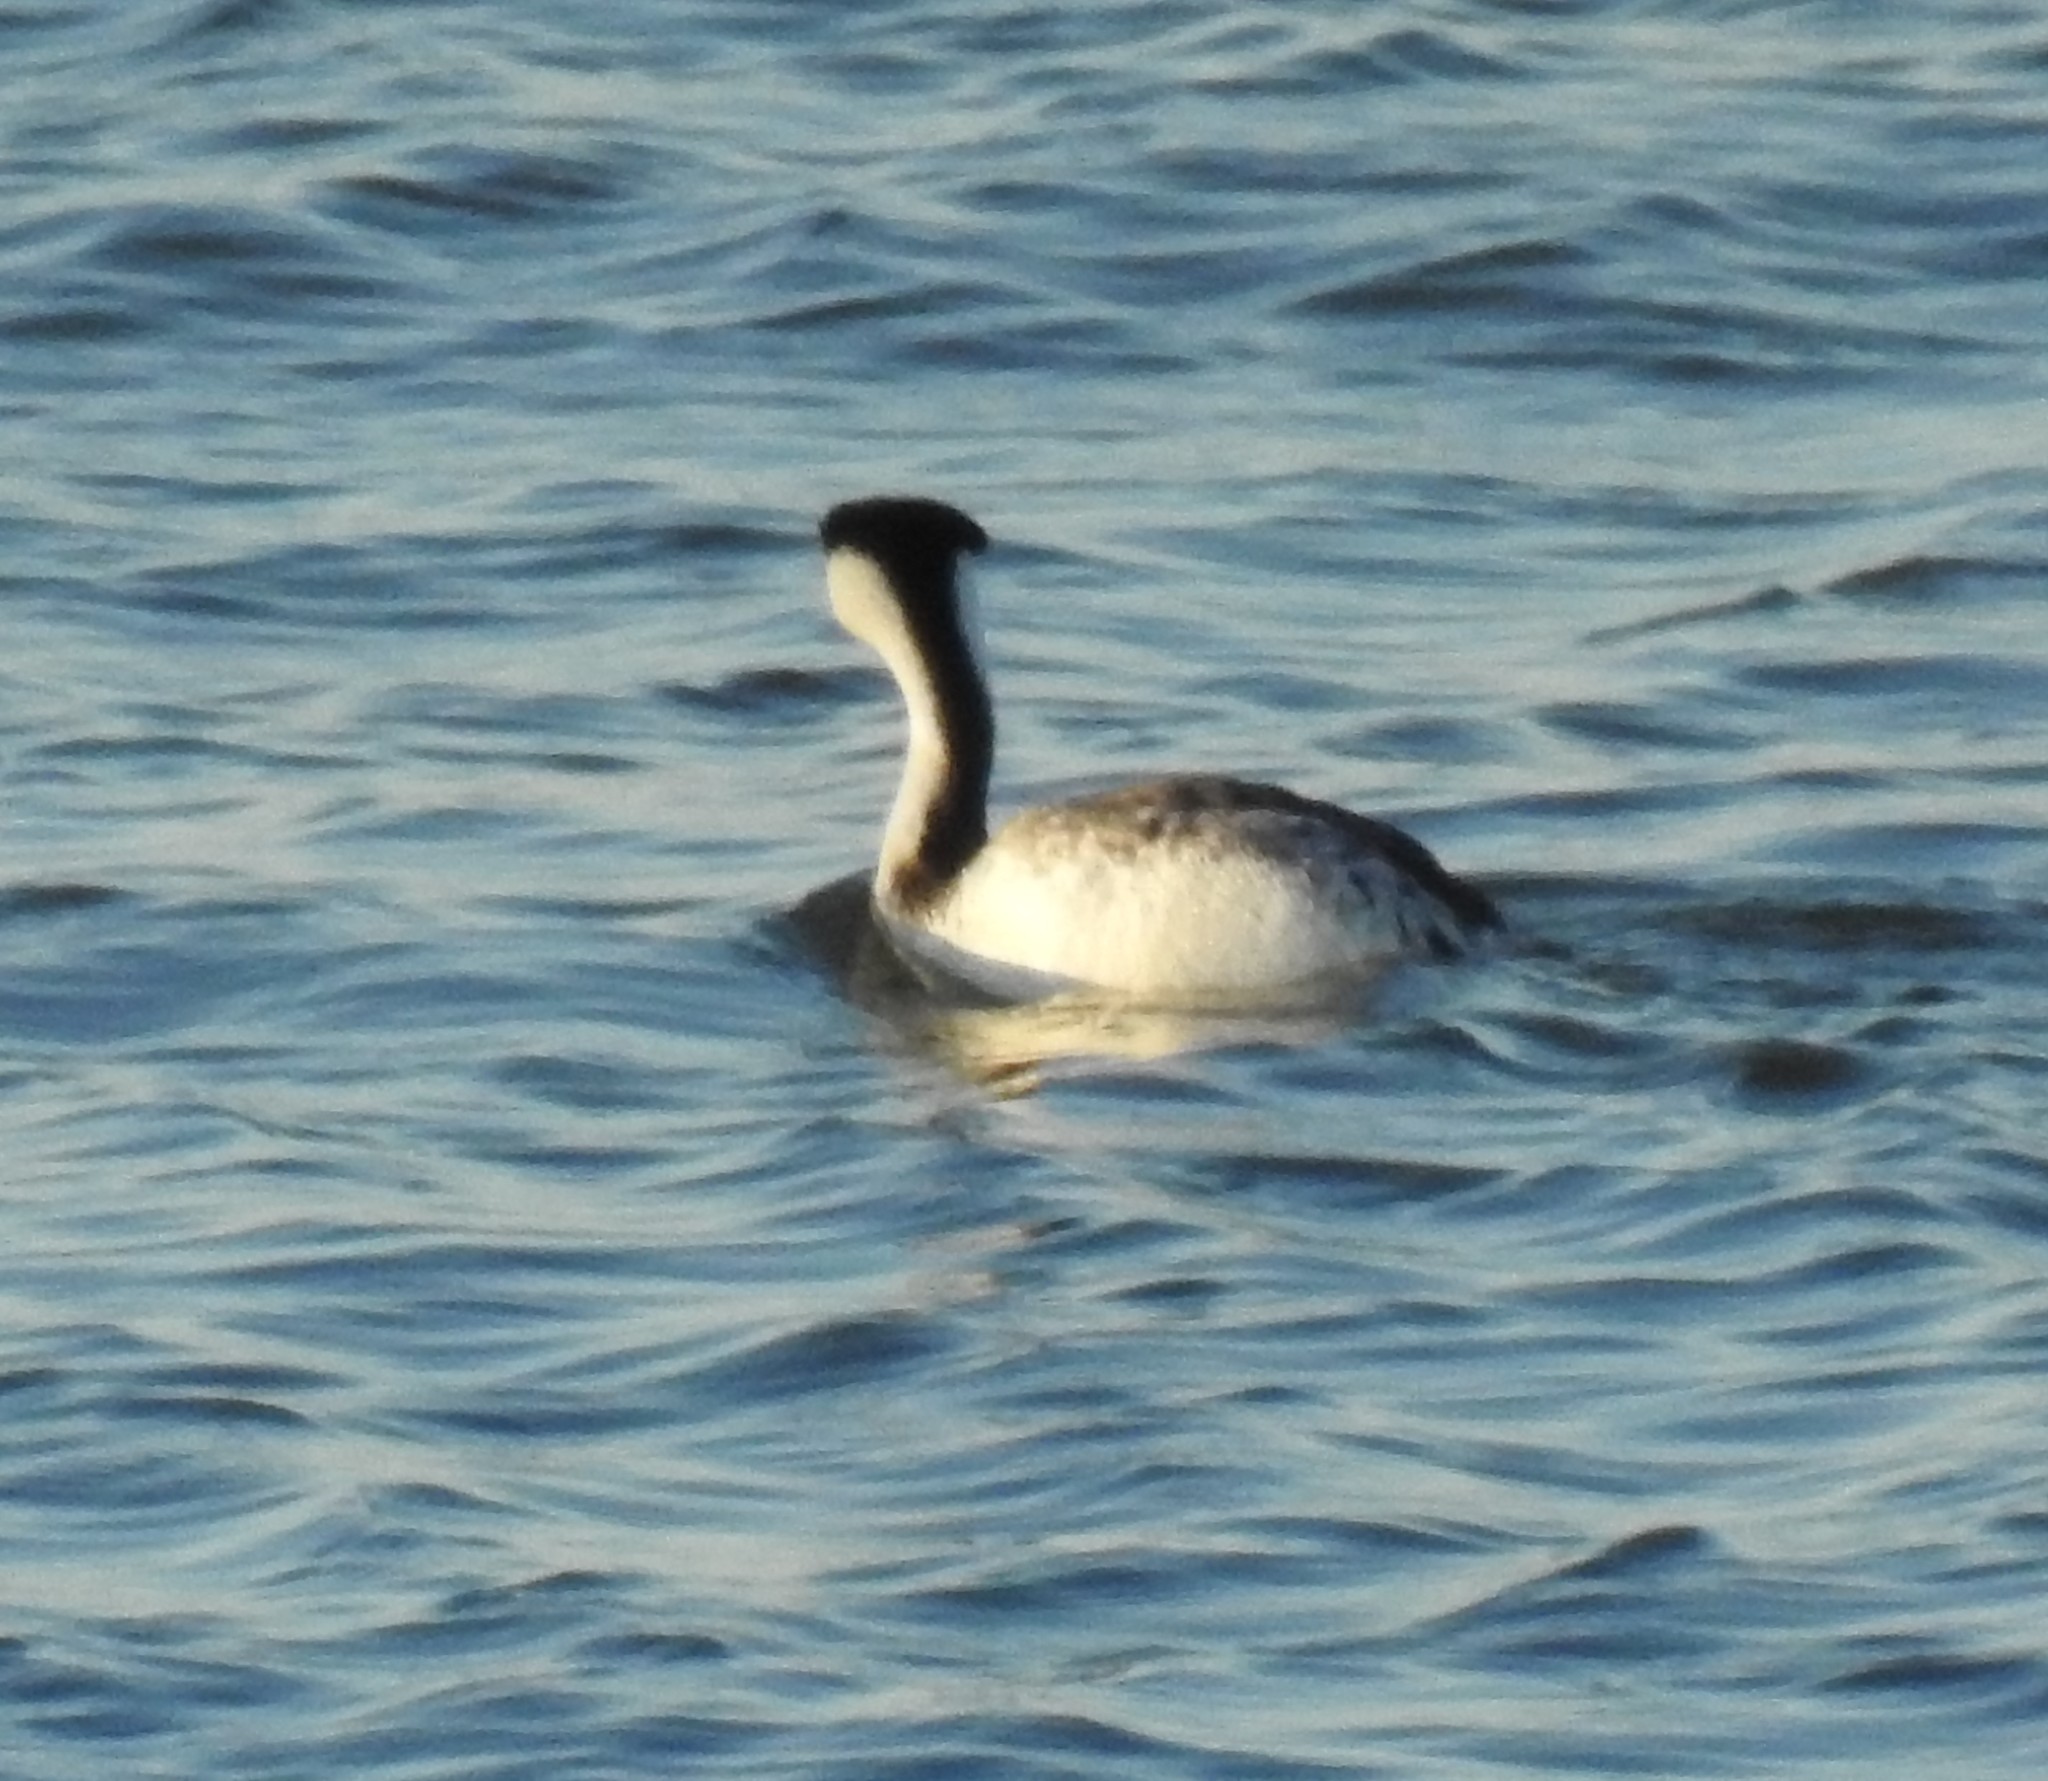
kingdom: Animalia
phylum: Chordata
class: Aves
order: Podicipediformes
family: Podicipedidae
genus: Aechmophorus
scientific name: Aechmophorus clarkii
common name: Clark's grebe
